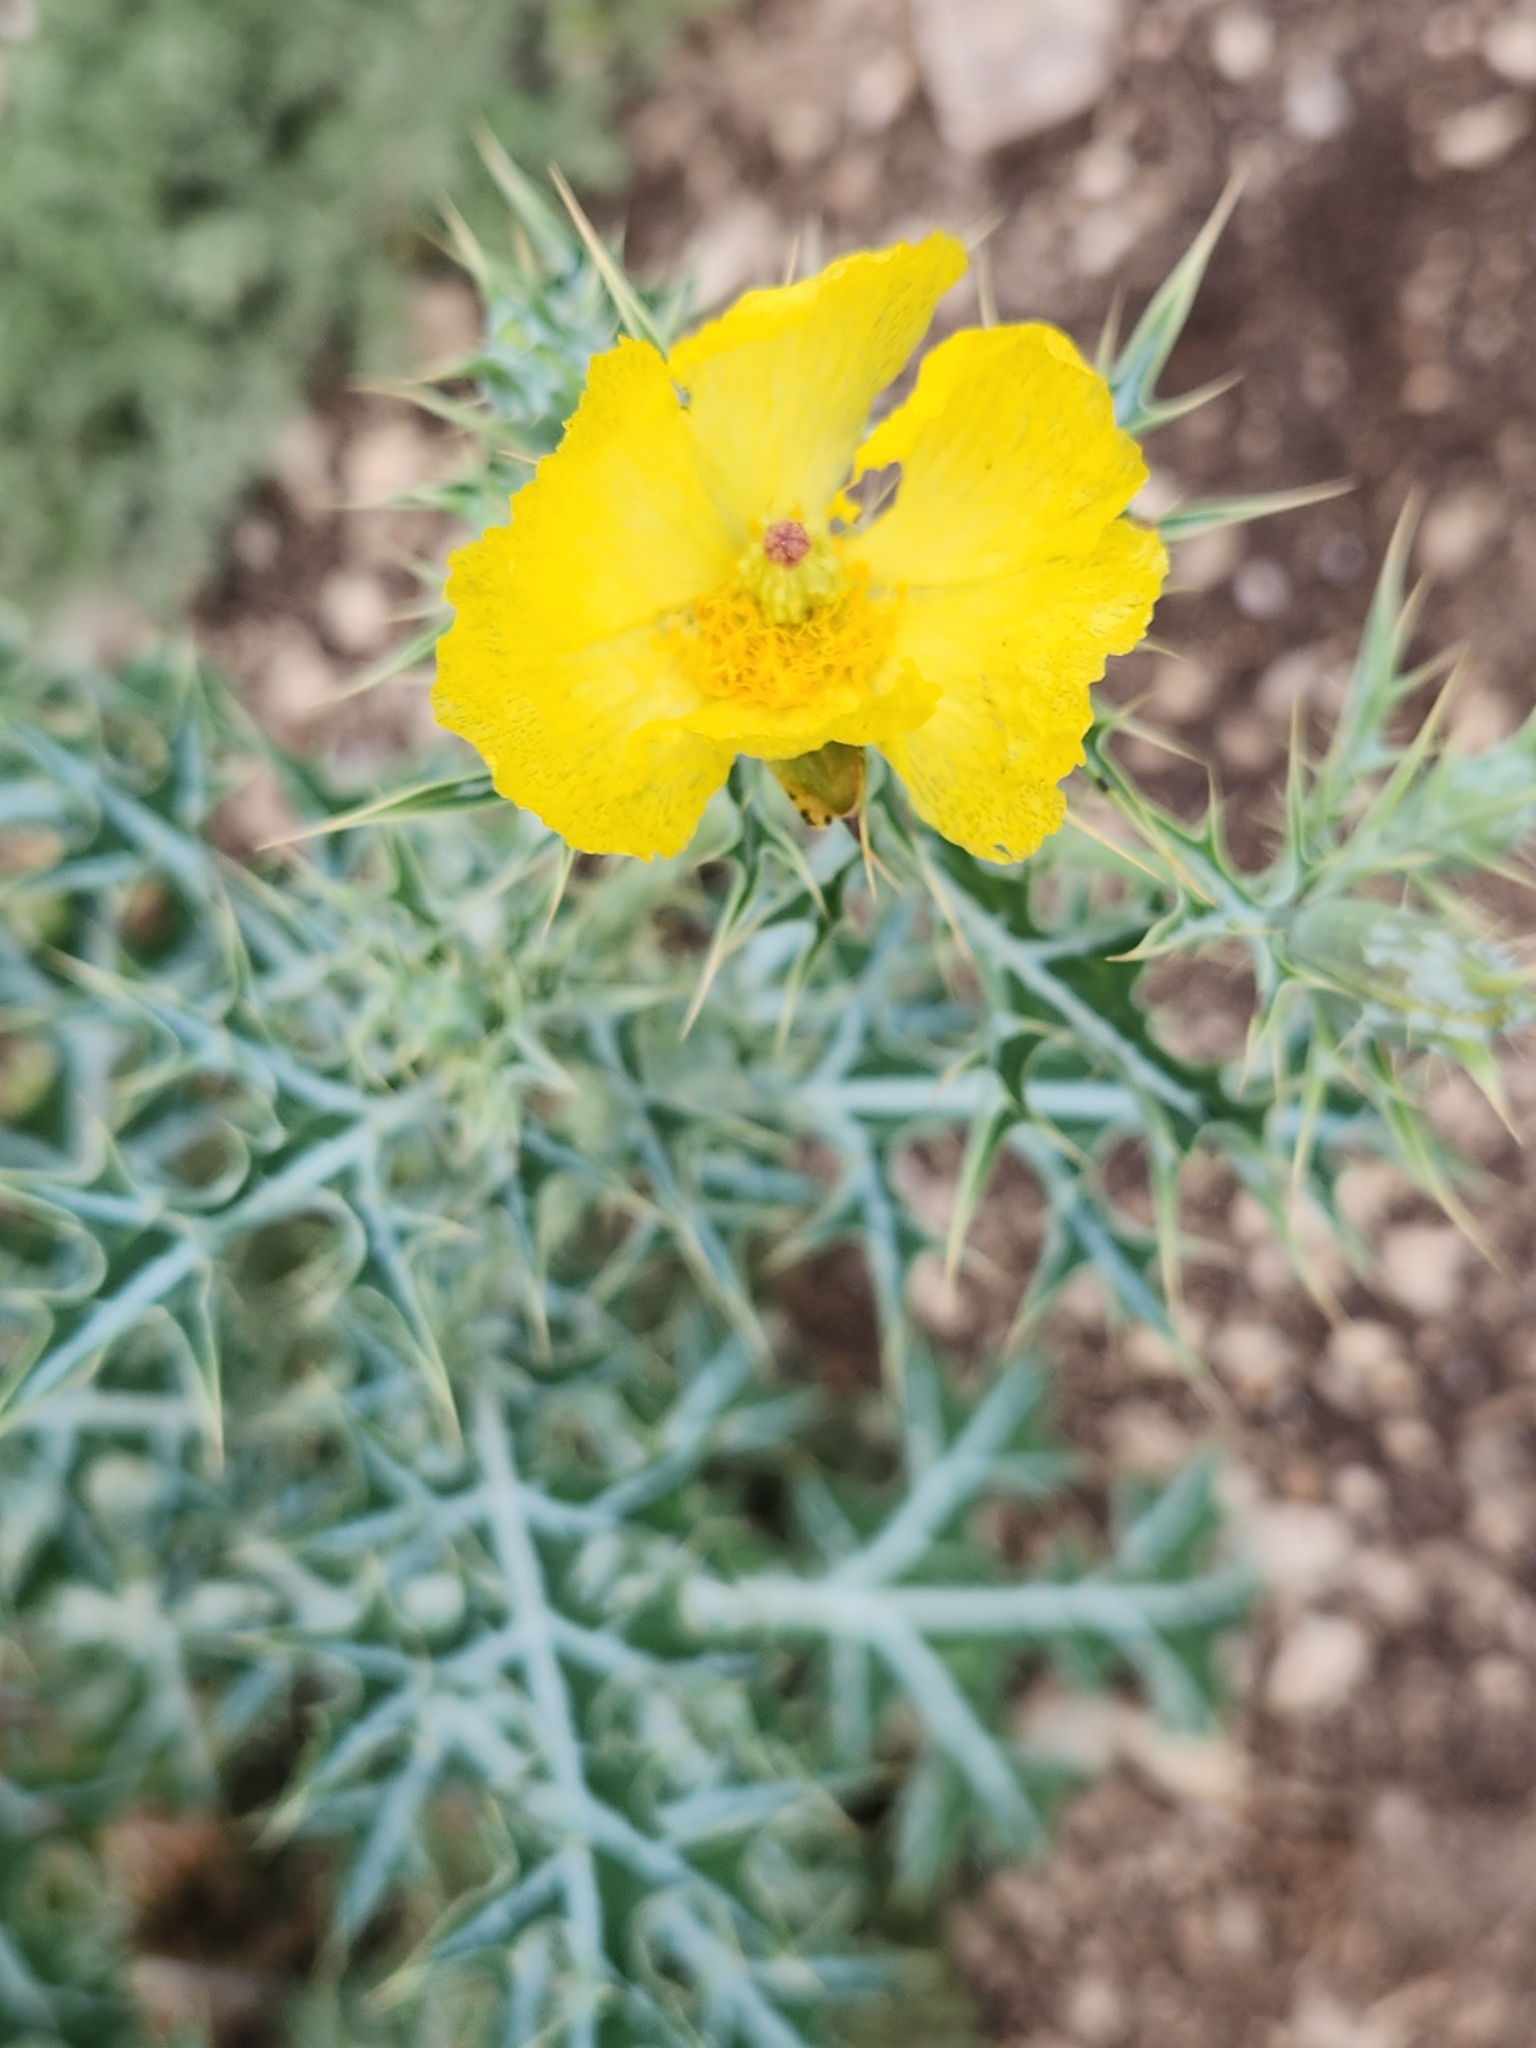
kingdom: Plantae
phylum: Tracheophyta
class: Magnoliopsida
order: Ranunculales
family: Papaveraceae
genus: Argemone
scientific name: Argemone mexicana
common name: Mexican poppy
